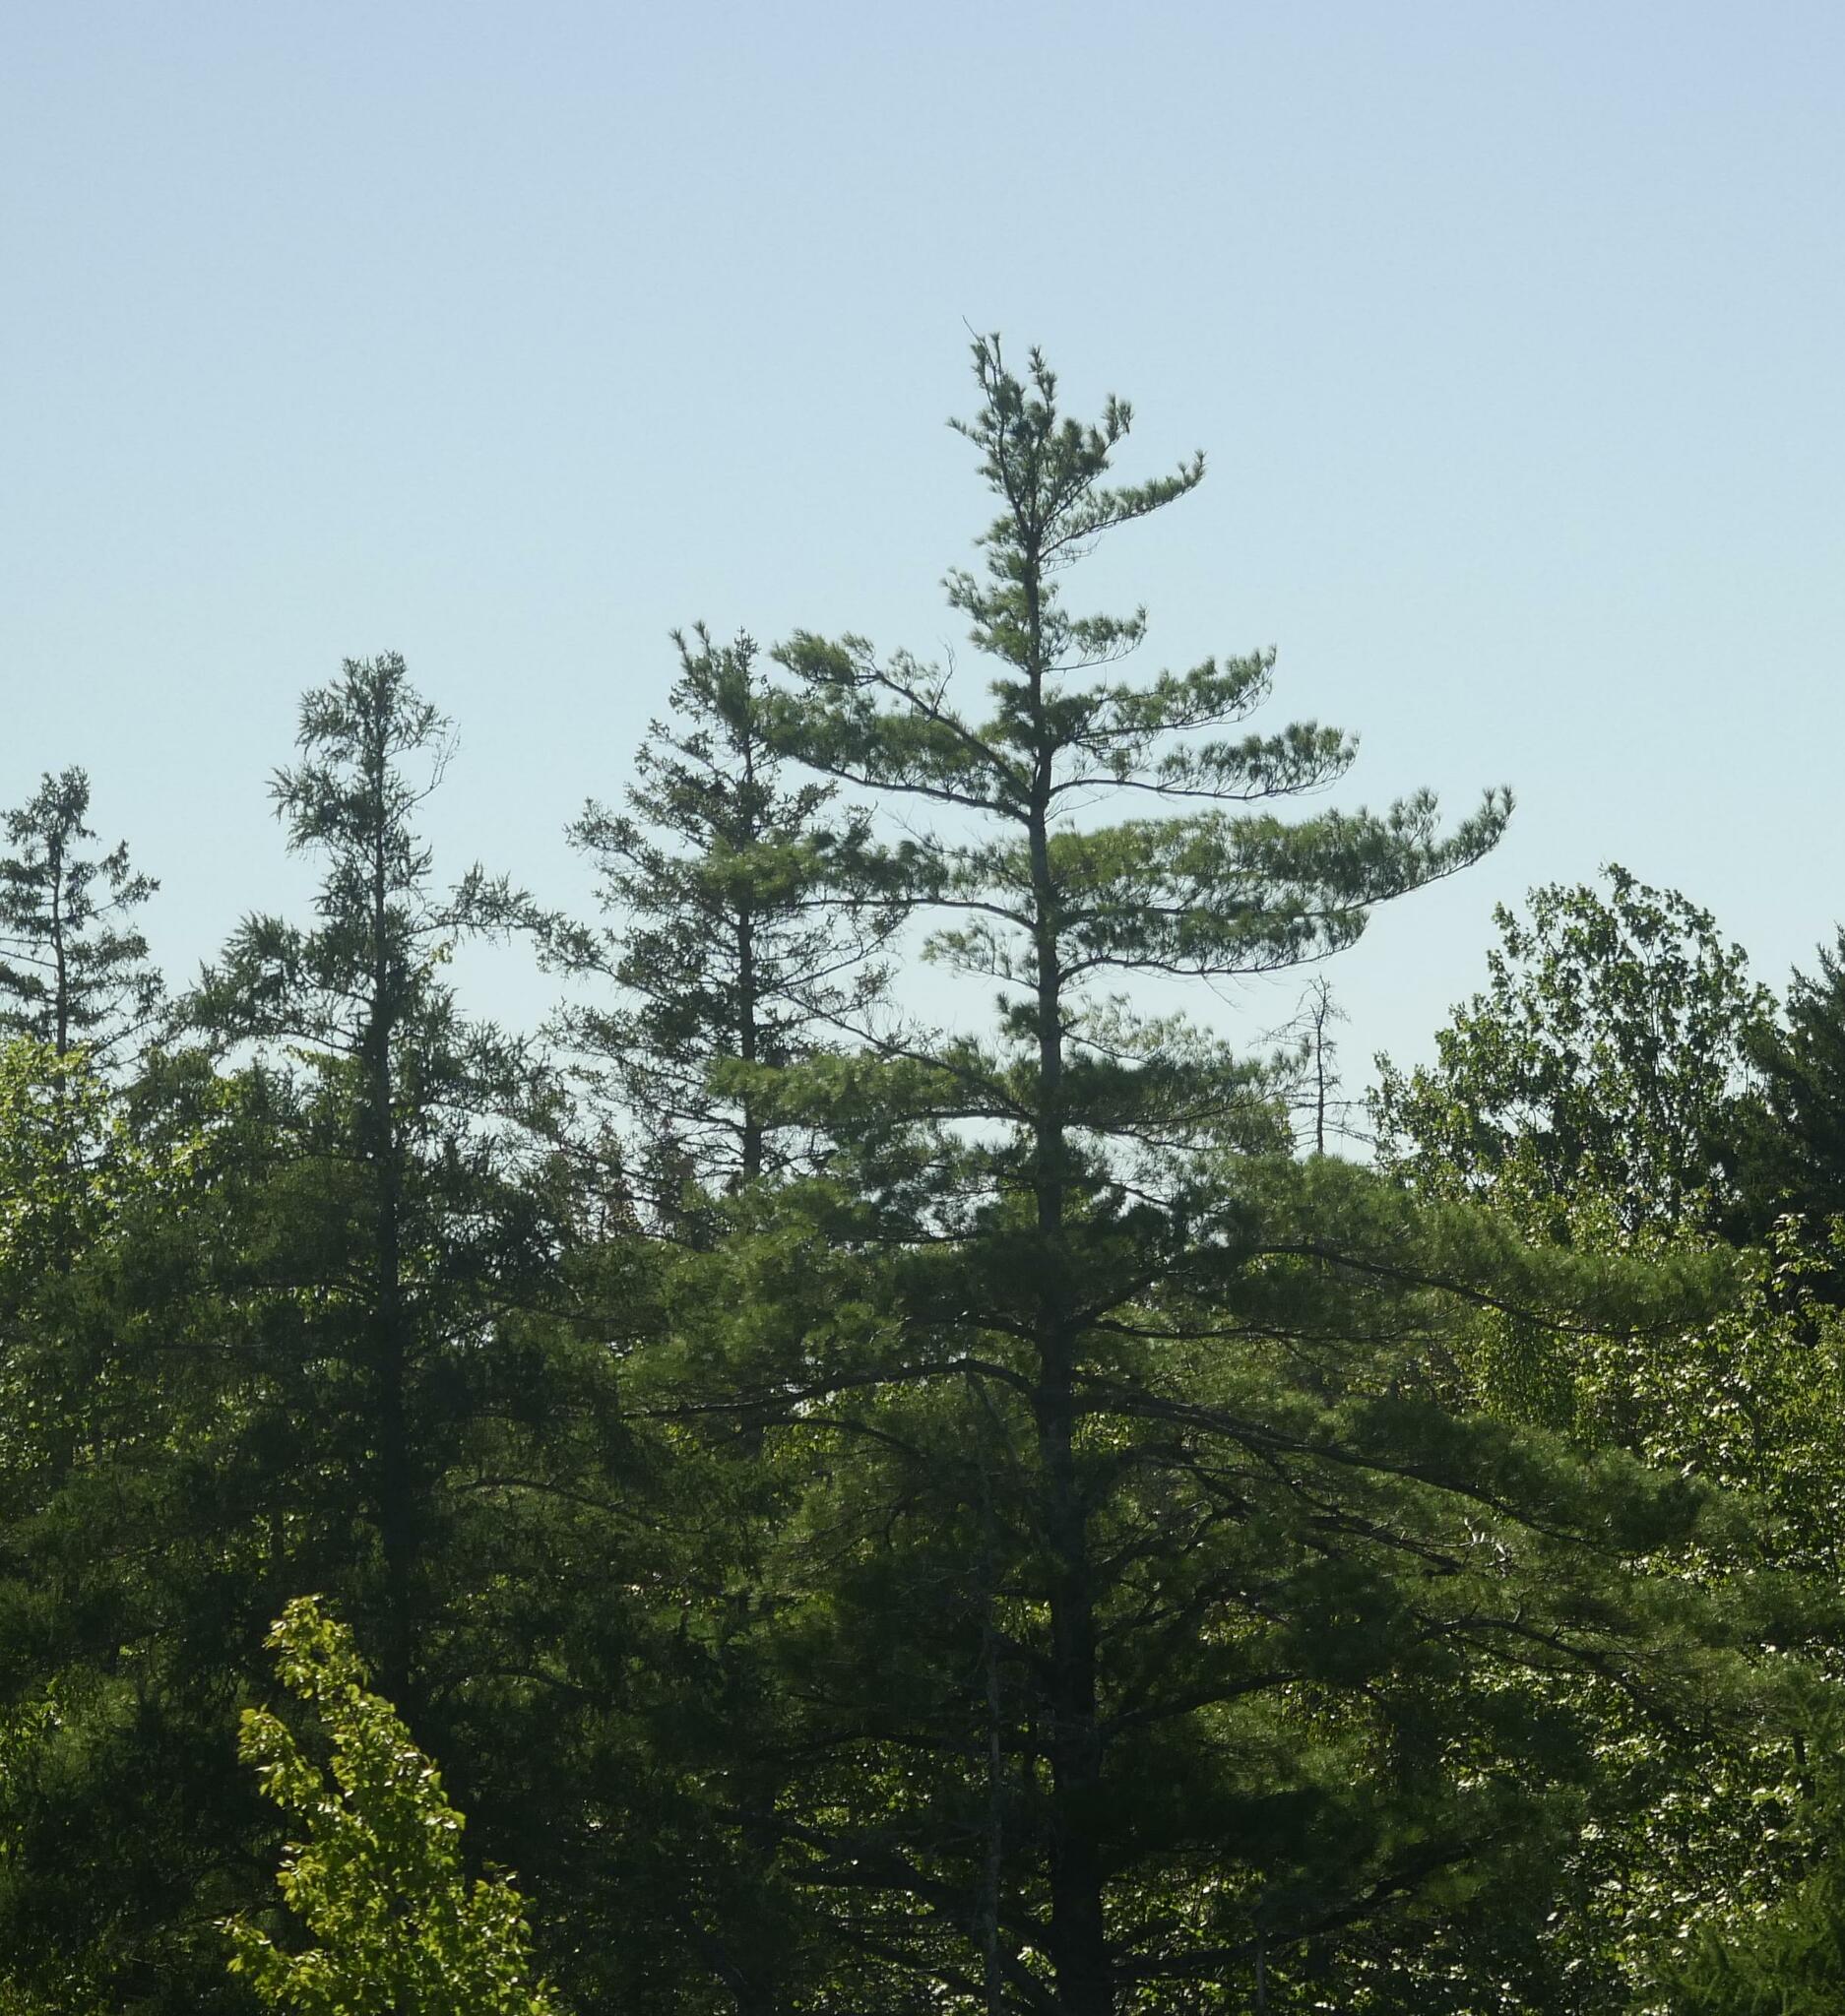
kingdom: Plantae
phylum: Tracheophyta
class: Pinopsida
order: Pinales
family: Pinaceae
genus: Pinus
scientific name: Pinus strobus
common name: Weymouth pine
